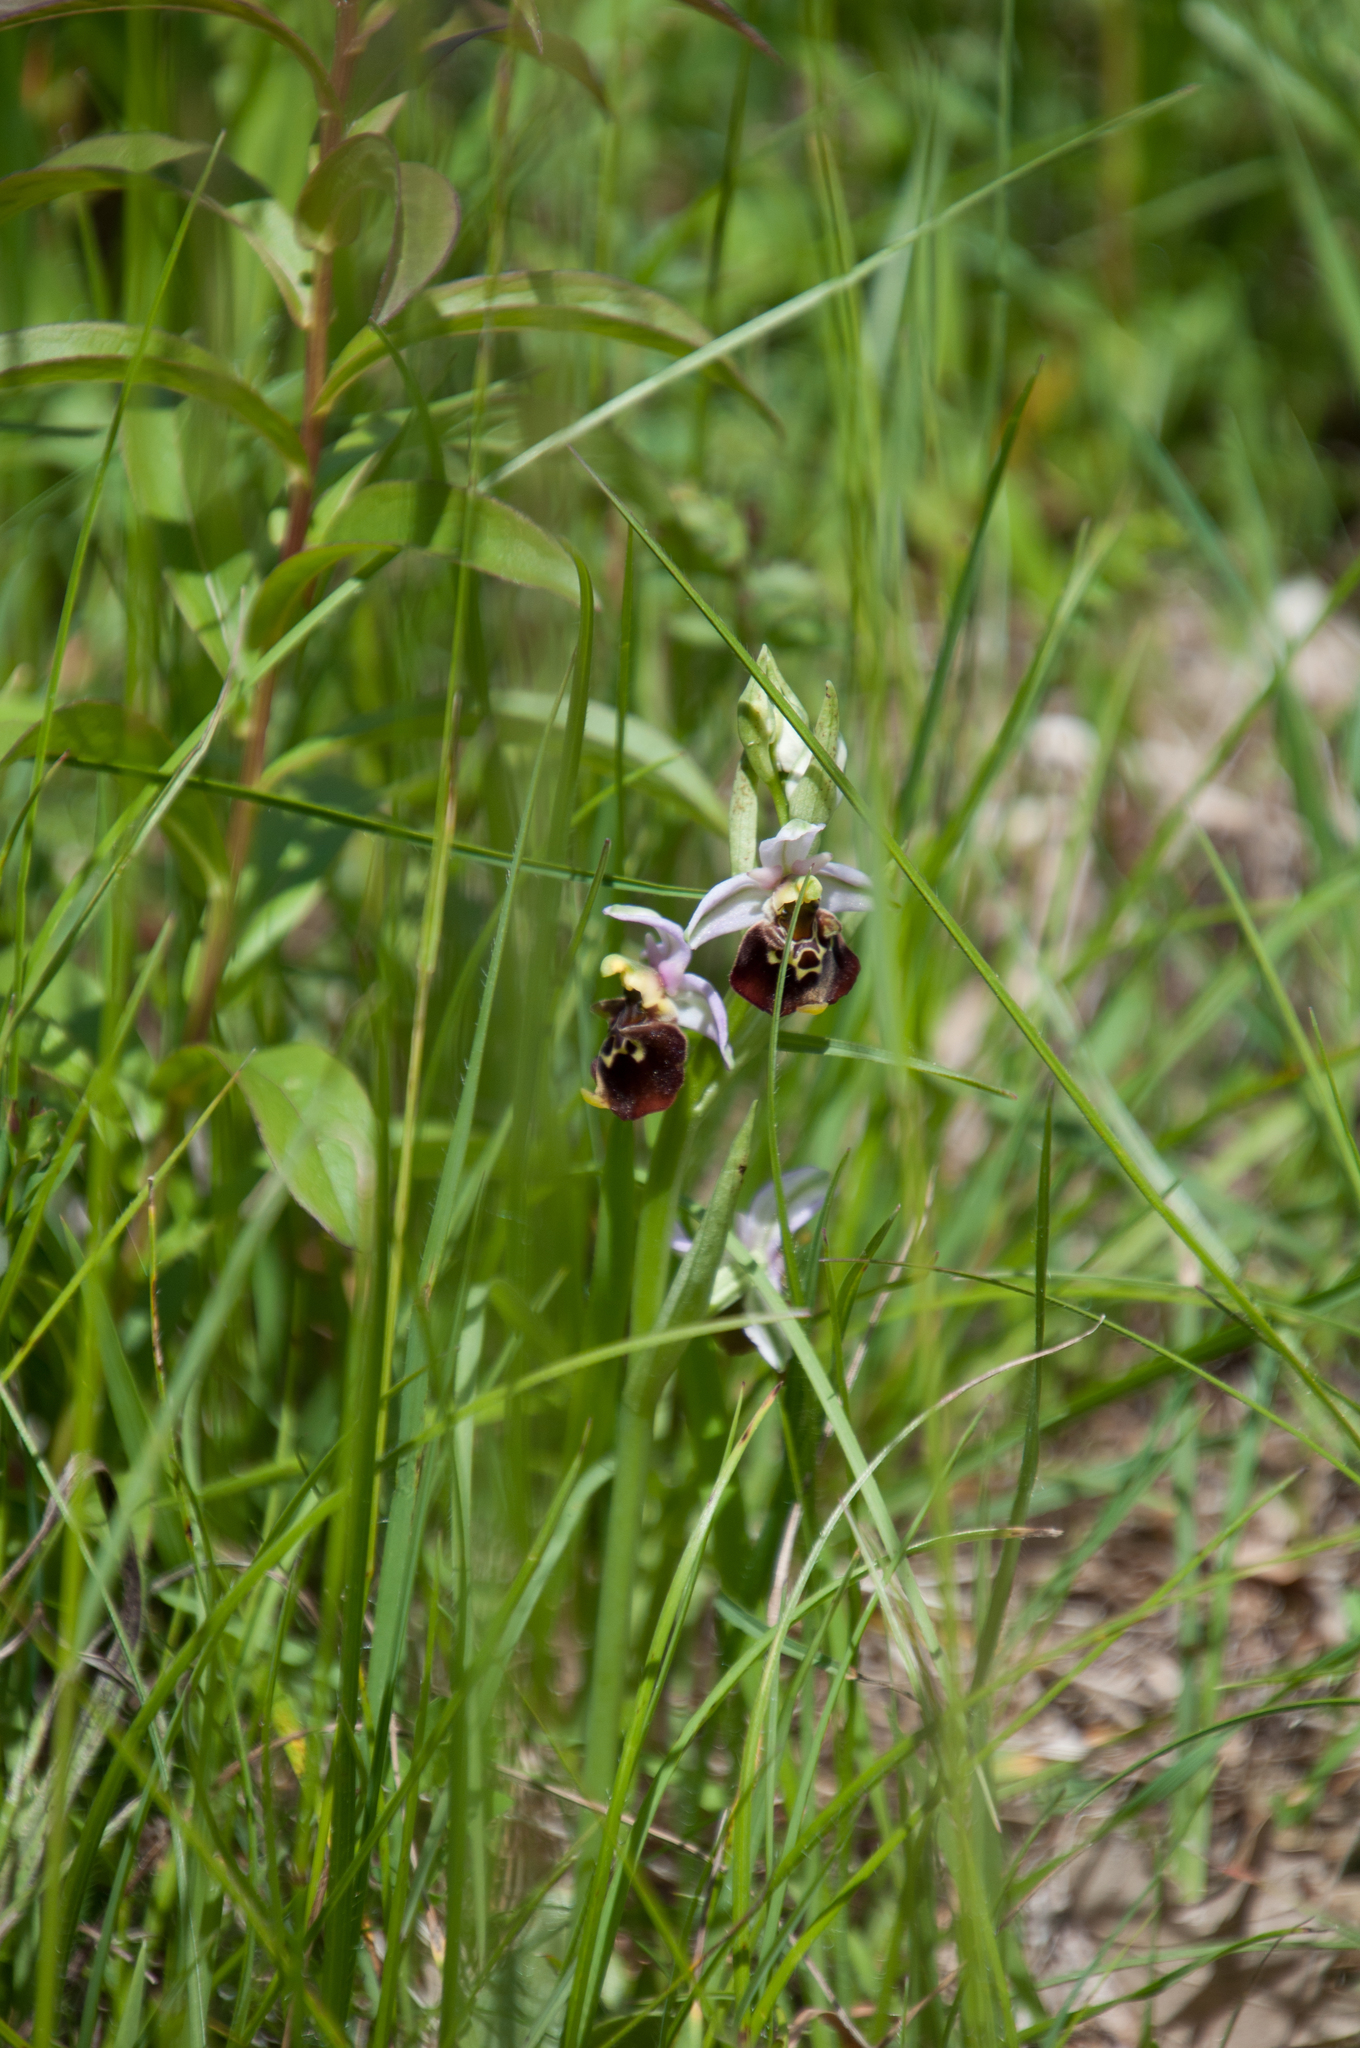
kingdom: Plantae
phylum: Tracheophyta
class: Liliopsida
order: Asparagales
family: Orchidaceae
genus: Ophrys
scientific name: Ophrys holosericea
